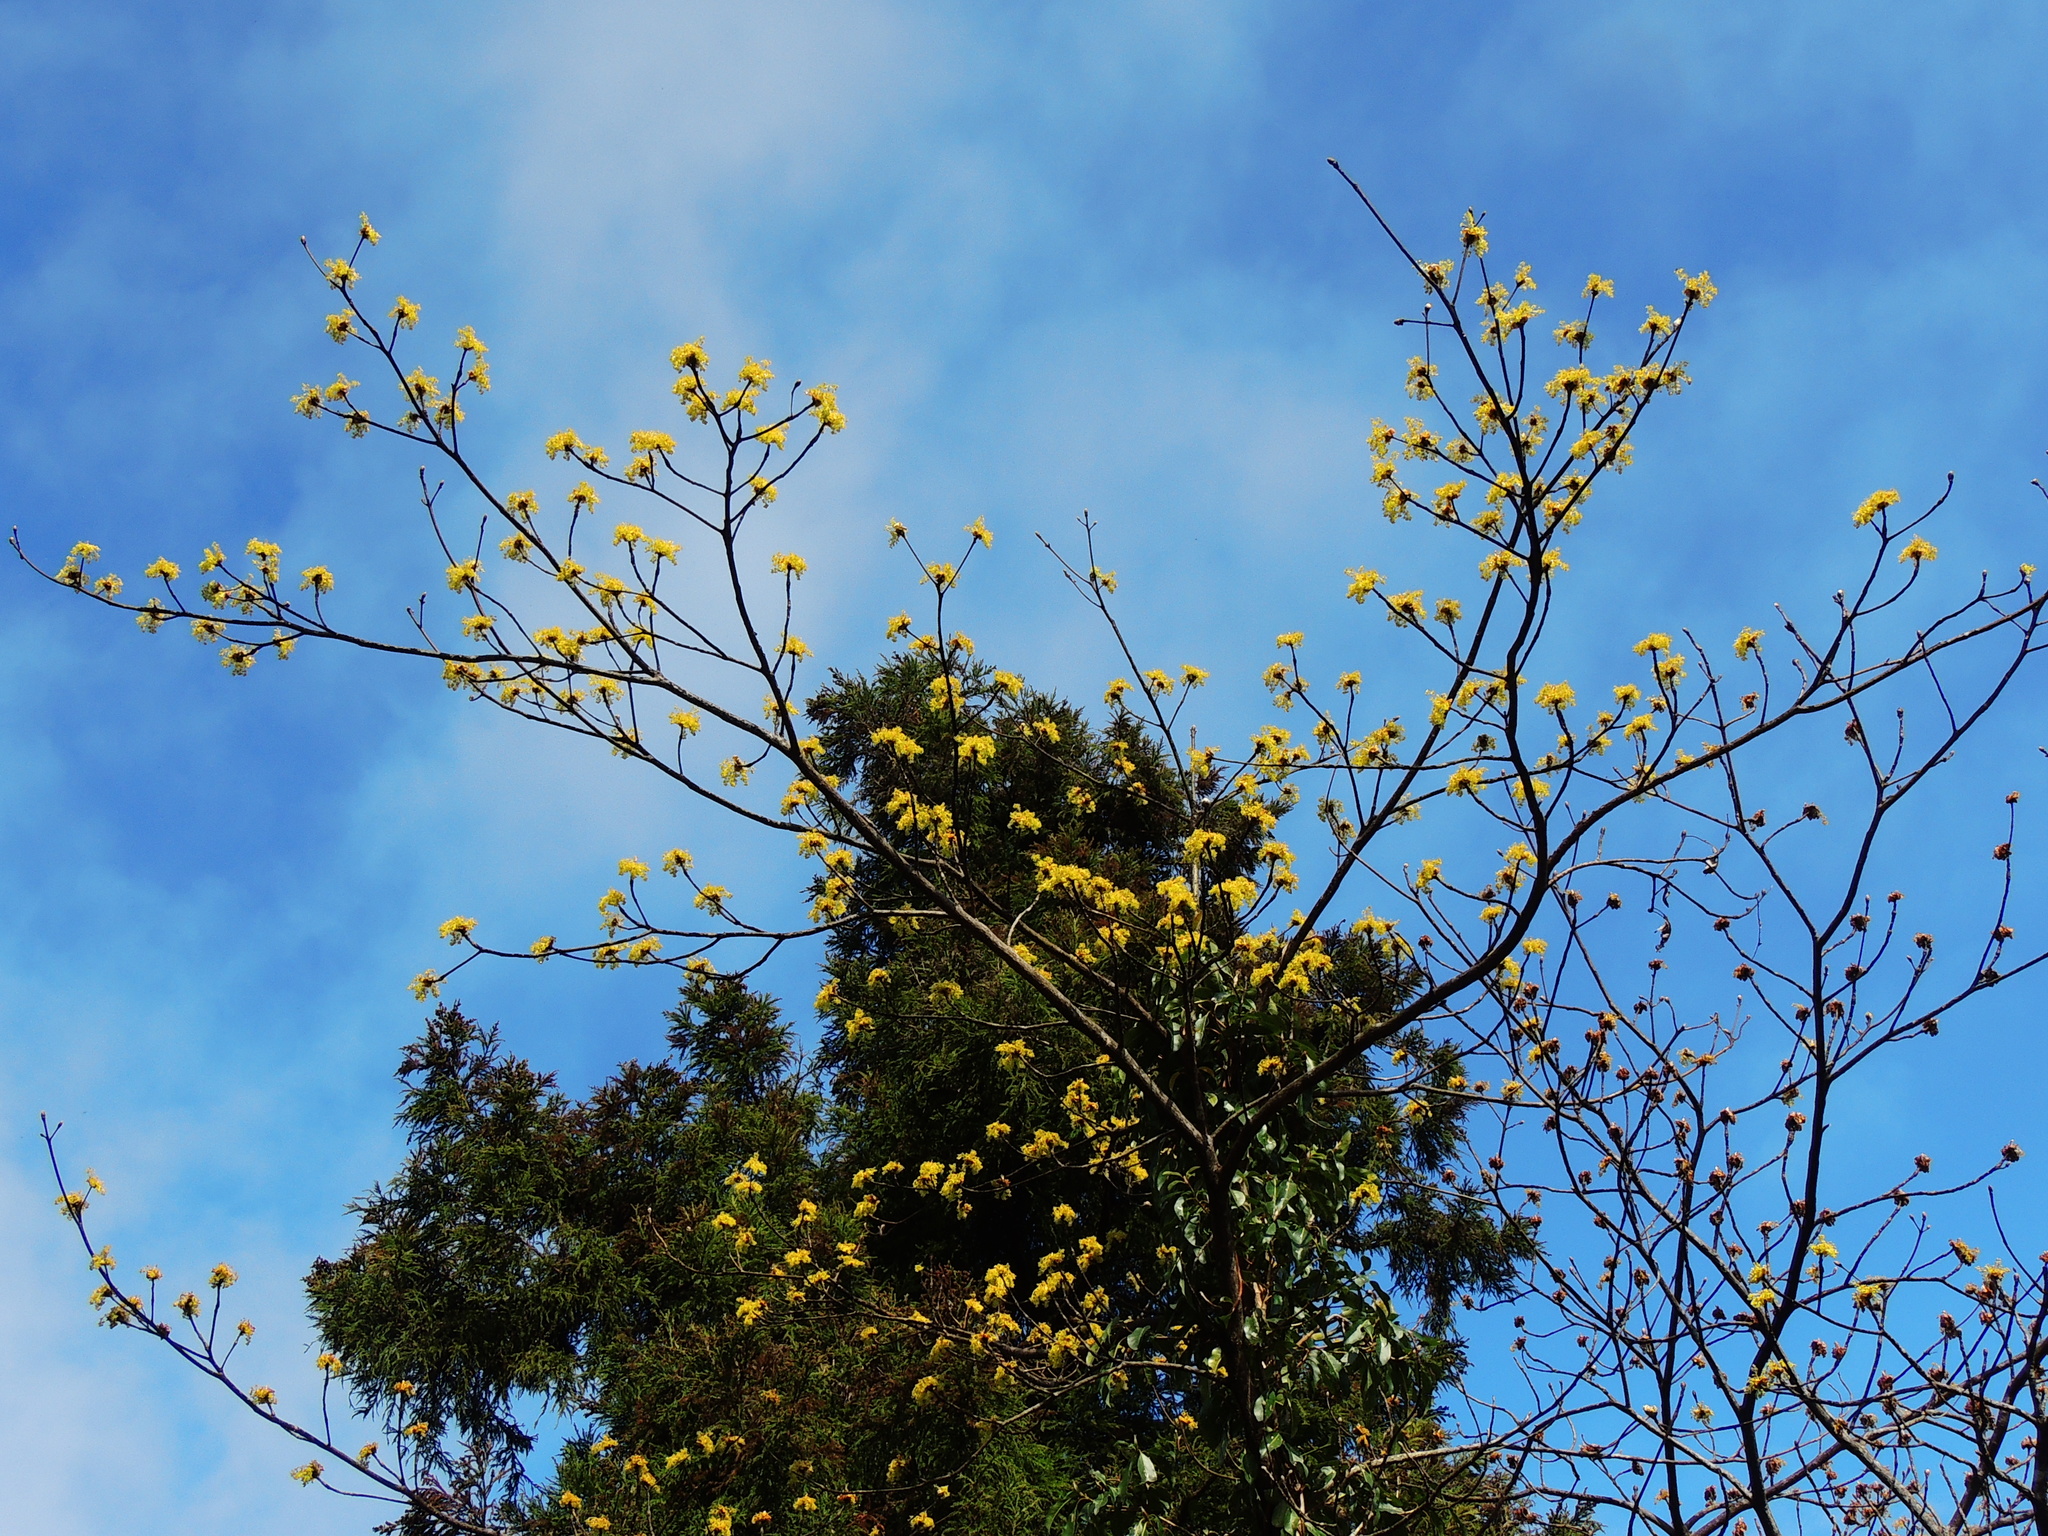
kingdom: Plantae
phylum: Tracheophyta
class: Magnoliopsida
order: Laurales
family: Lauraceae
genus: Sassafras
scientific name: Sassafras randaiense
